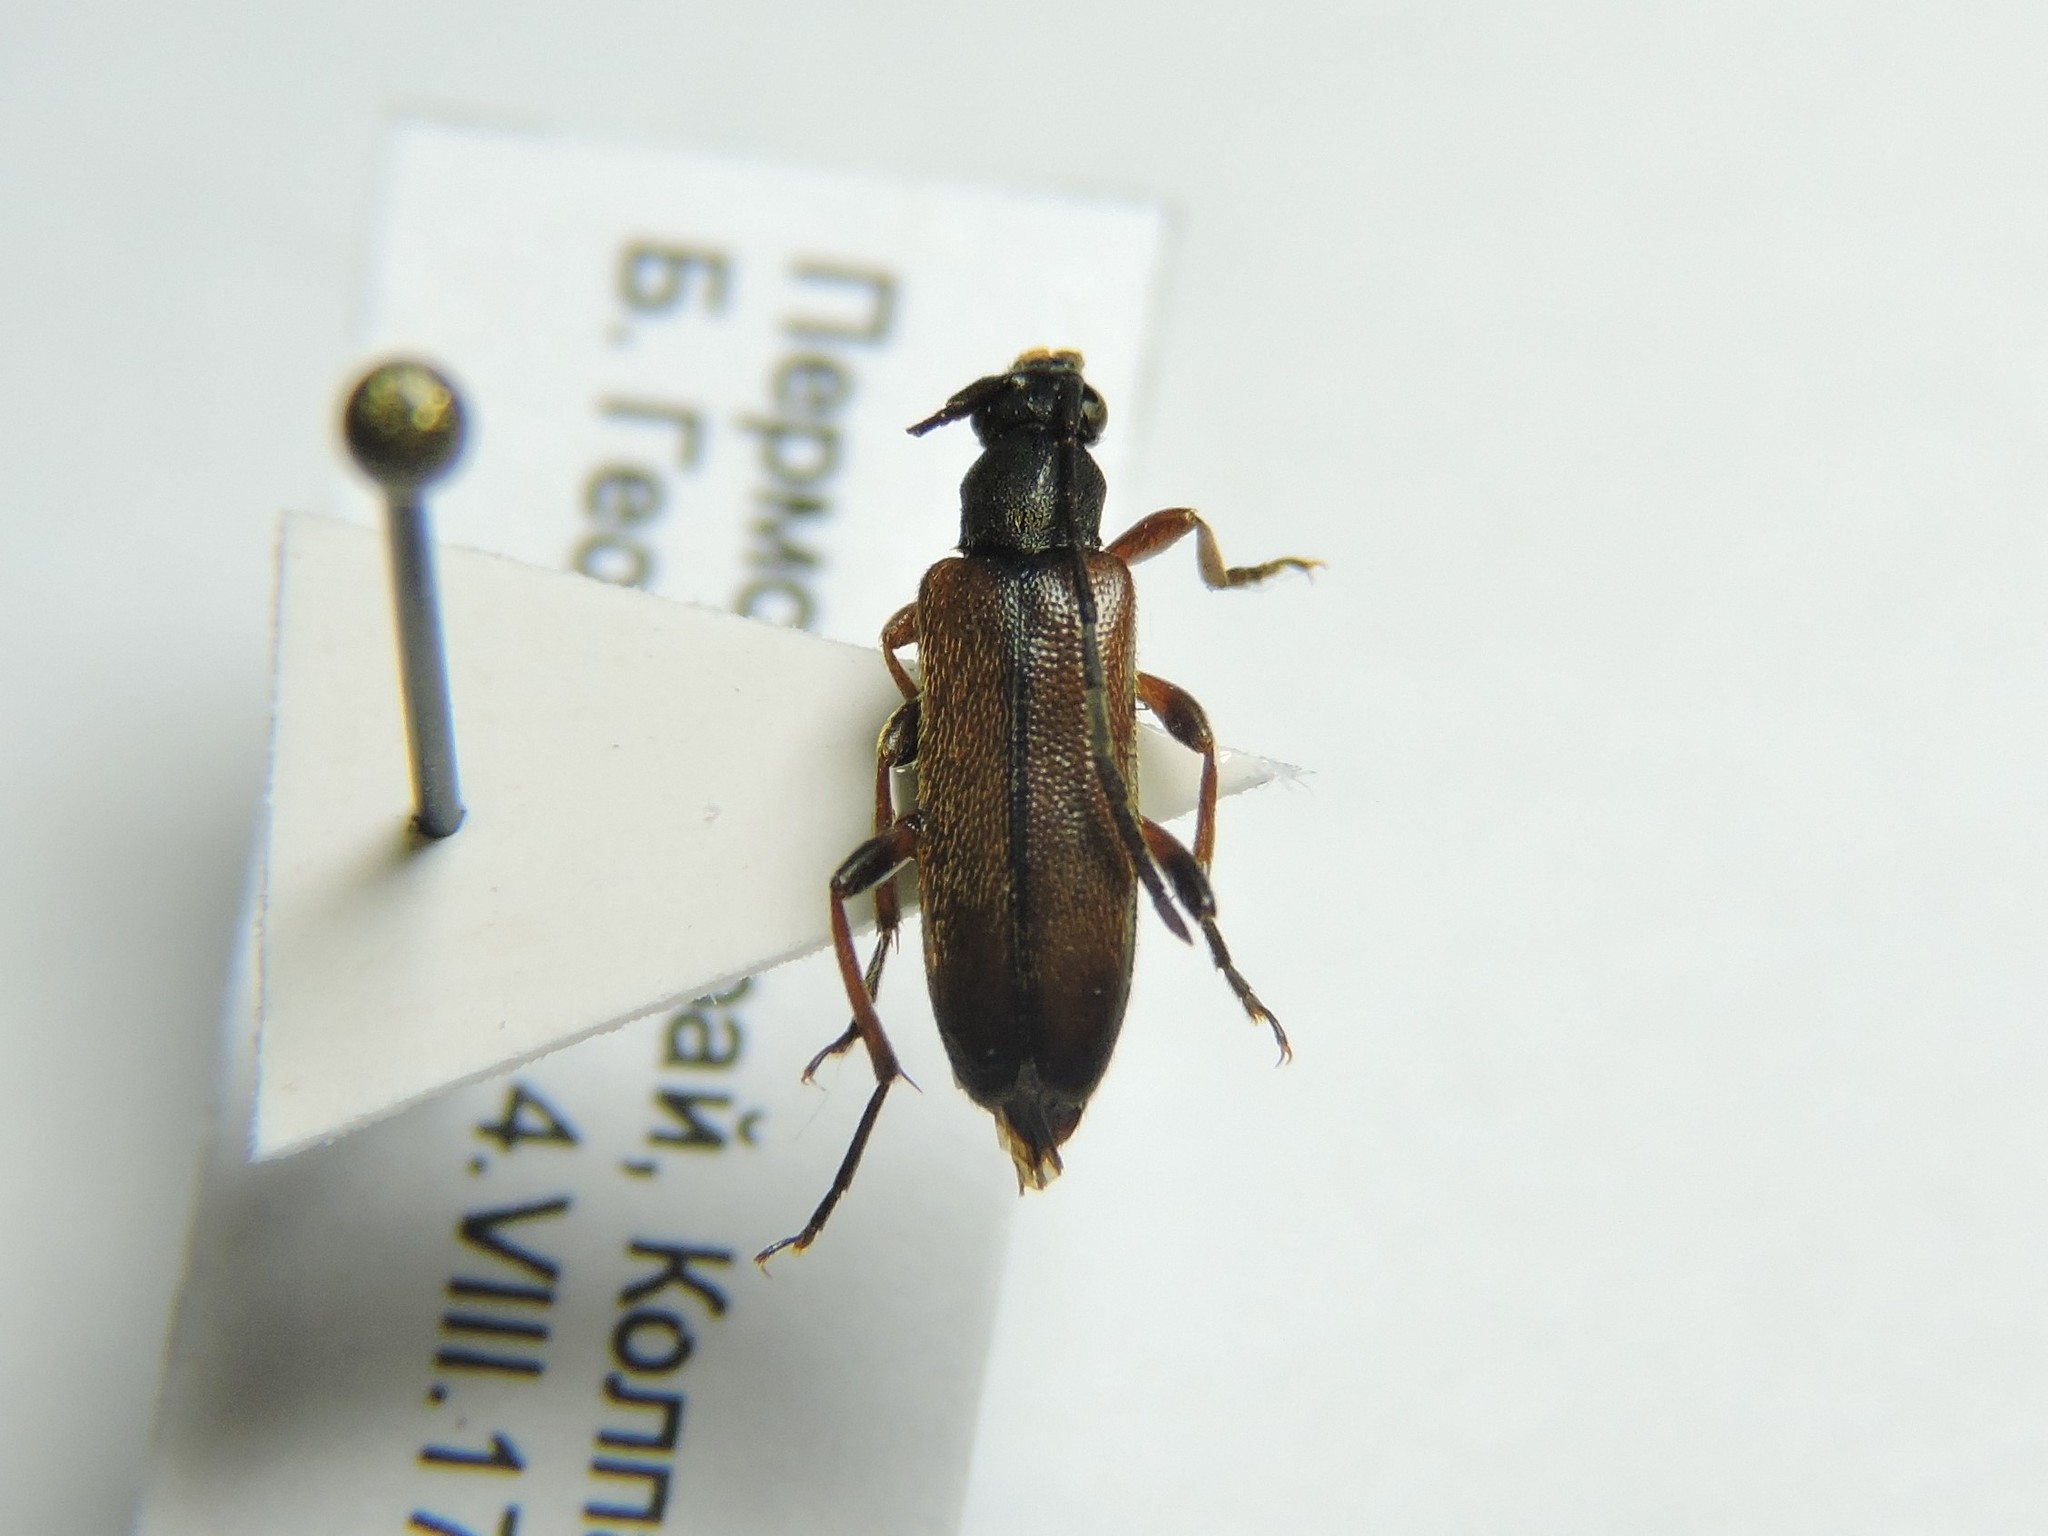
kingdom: Animalia
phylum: Arthropoda
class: Insecta
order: Coleoptera
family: Cerambycidae
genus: Alosterna
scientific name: Alosterna tabacicolor
